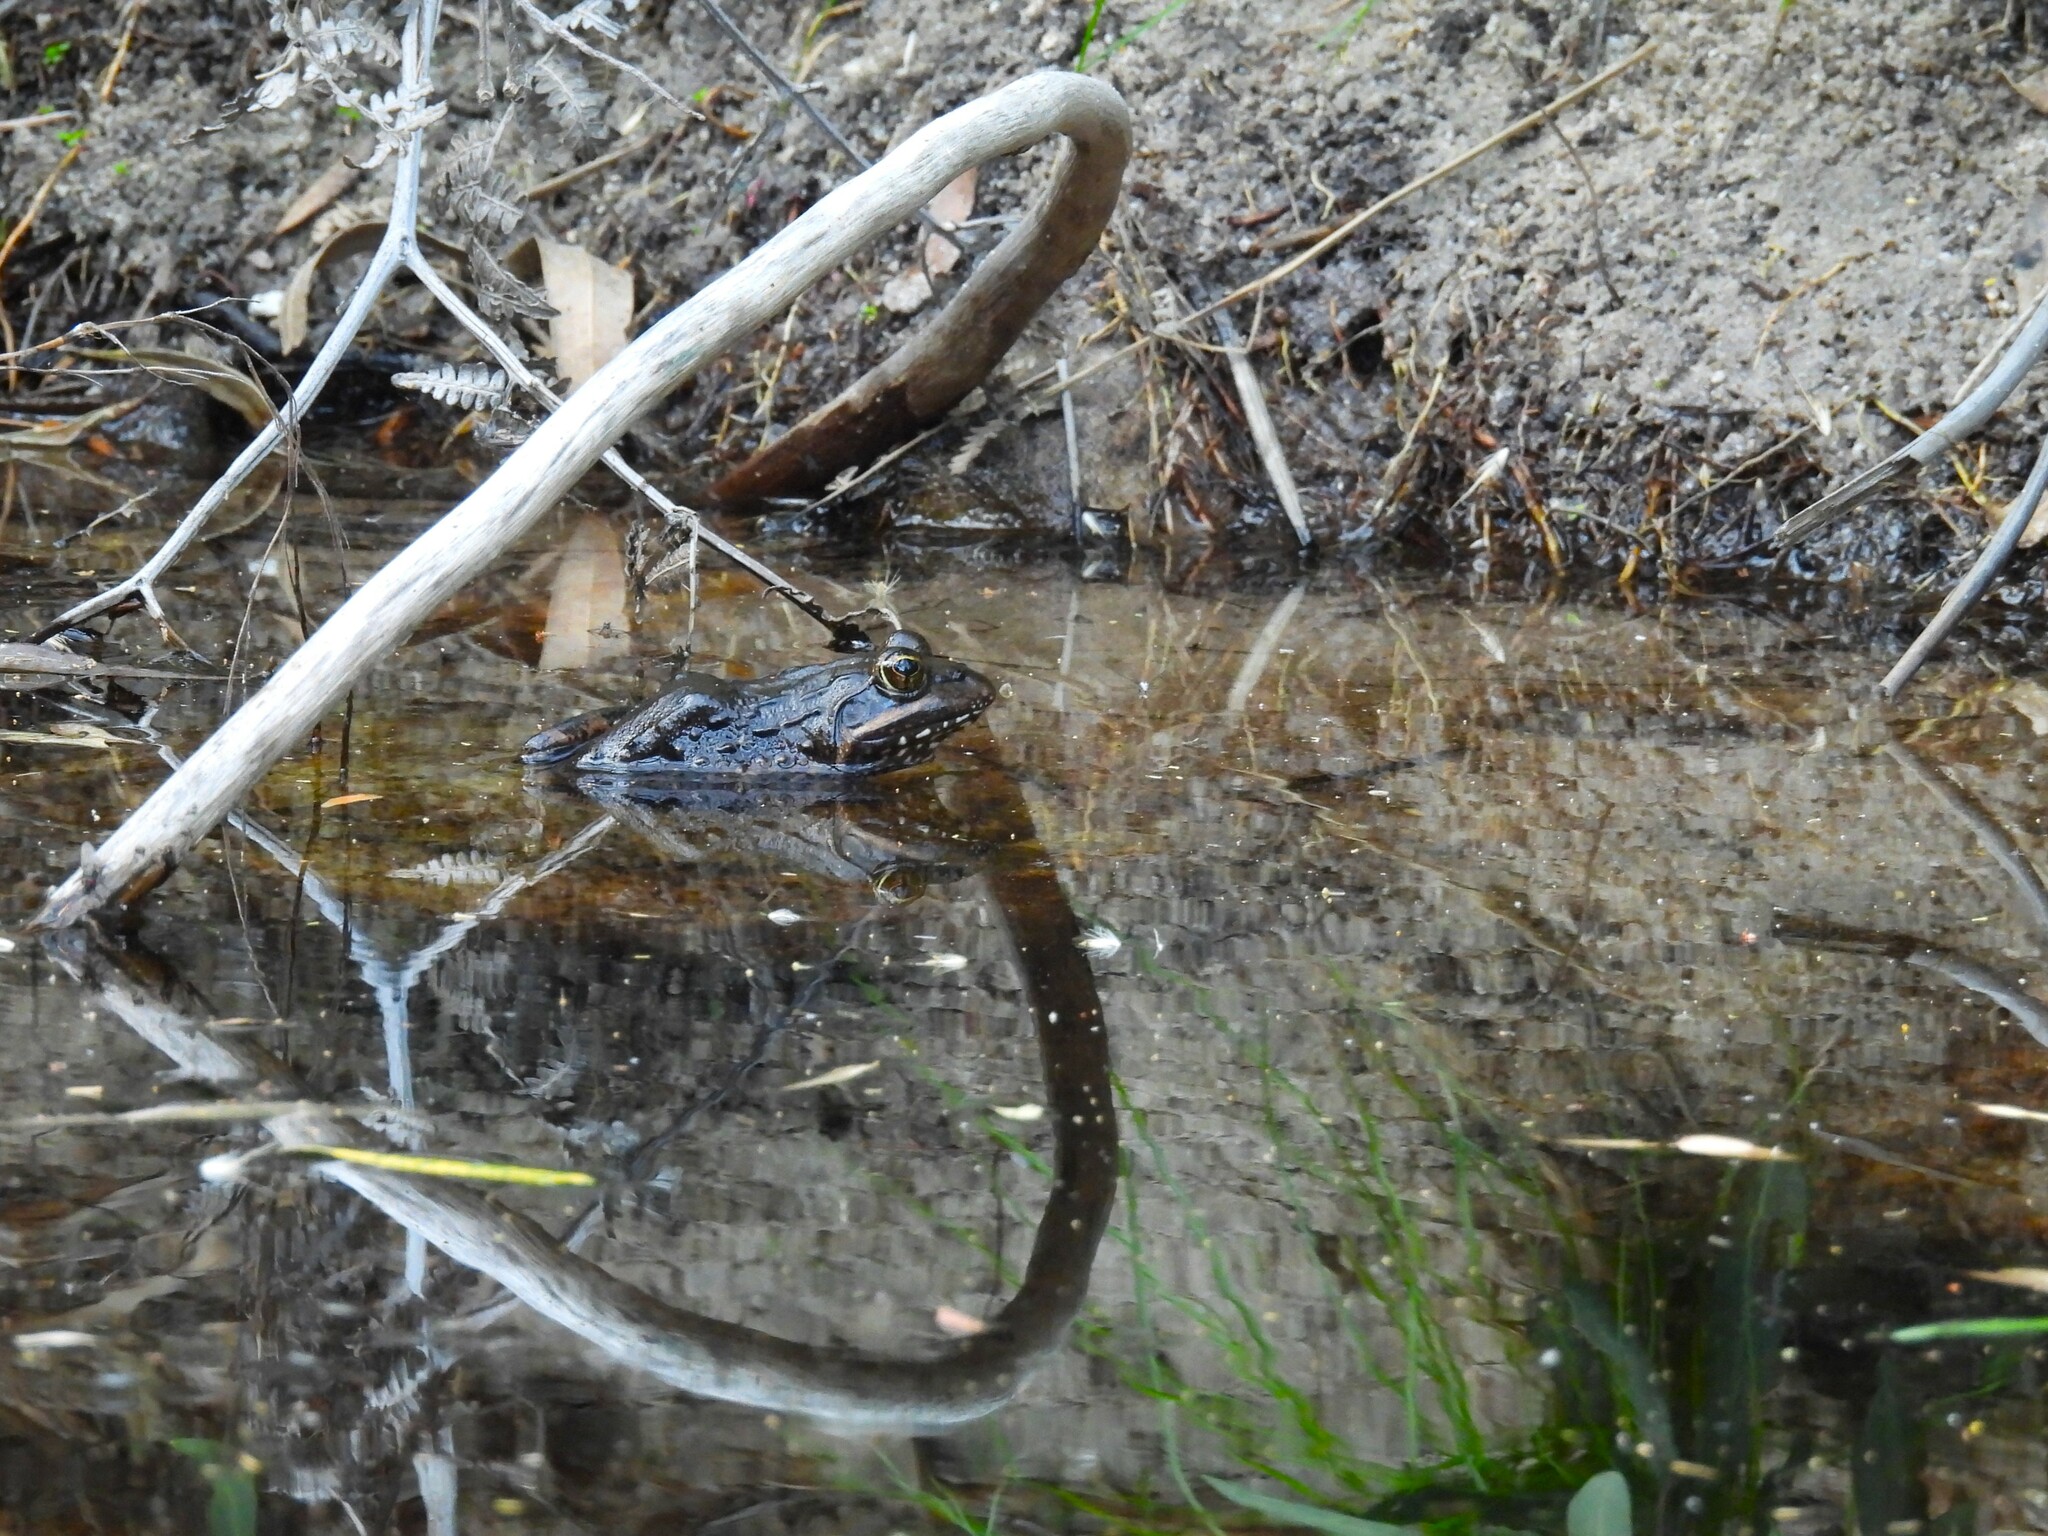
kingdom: Animalia
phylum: Chordata
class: Amphibia
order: Anura
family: Pyxicephalidae
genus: Amietia
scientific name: Amietia fuscigula
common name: Cape rana
